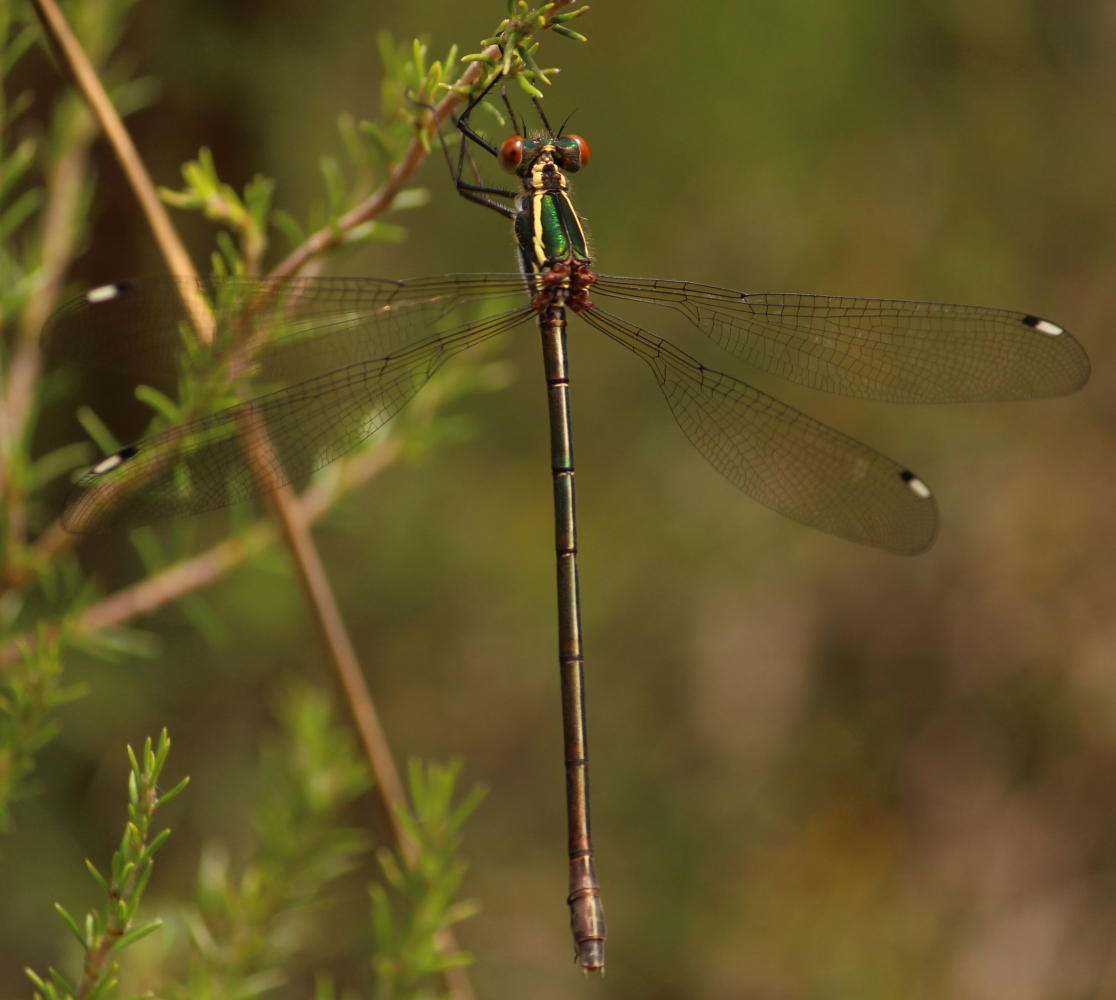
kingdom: Animalia
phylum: Arthropoda
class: Insecta
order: Odonata
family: Synlestidae
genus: Chlorolestes
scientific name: Chlorolestes draconicus
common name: Drakensberg malachite
